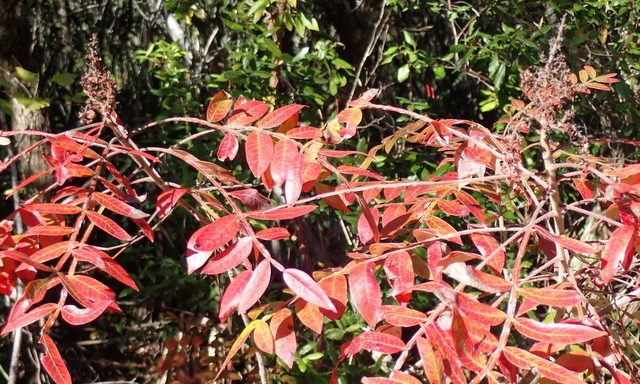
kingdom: Plantae
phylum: Tracheophyta
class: Magnoliopsida
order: Sapindales
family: Anacardiaceae
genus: Rhus
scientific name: Rhus copallina
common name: Shining sumac
